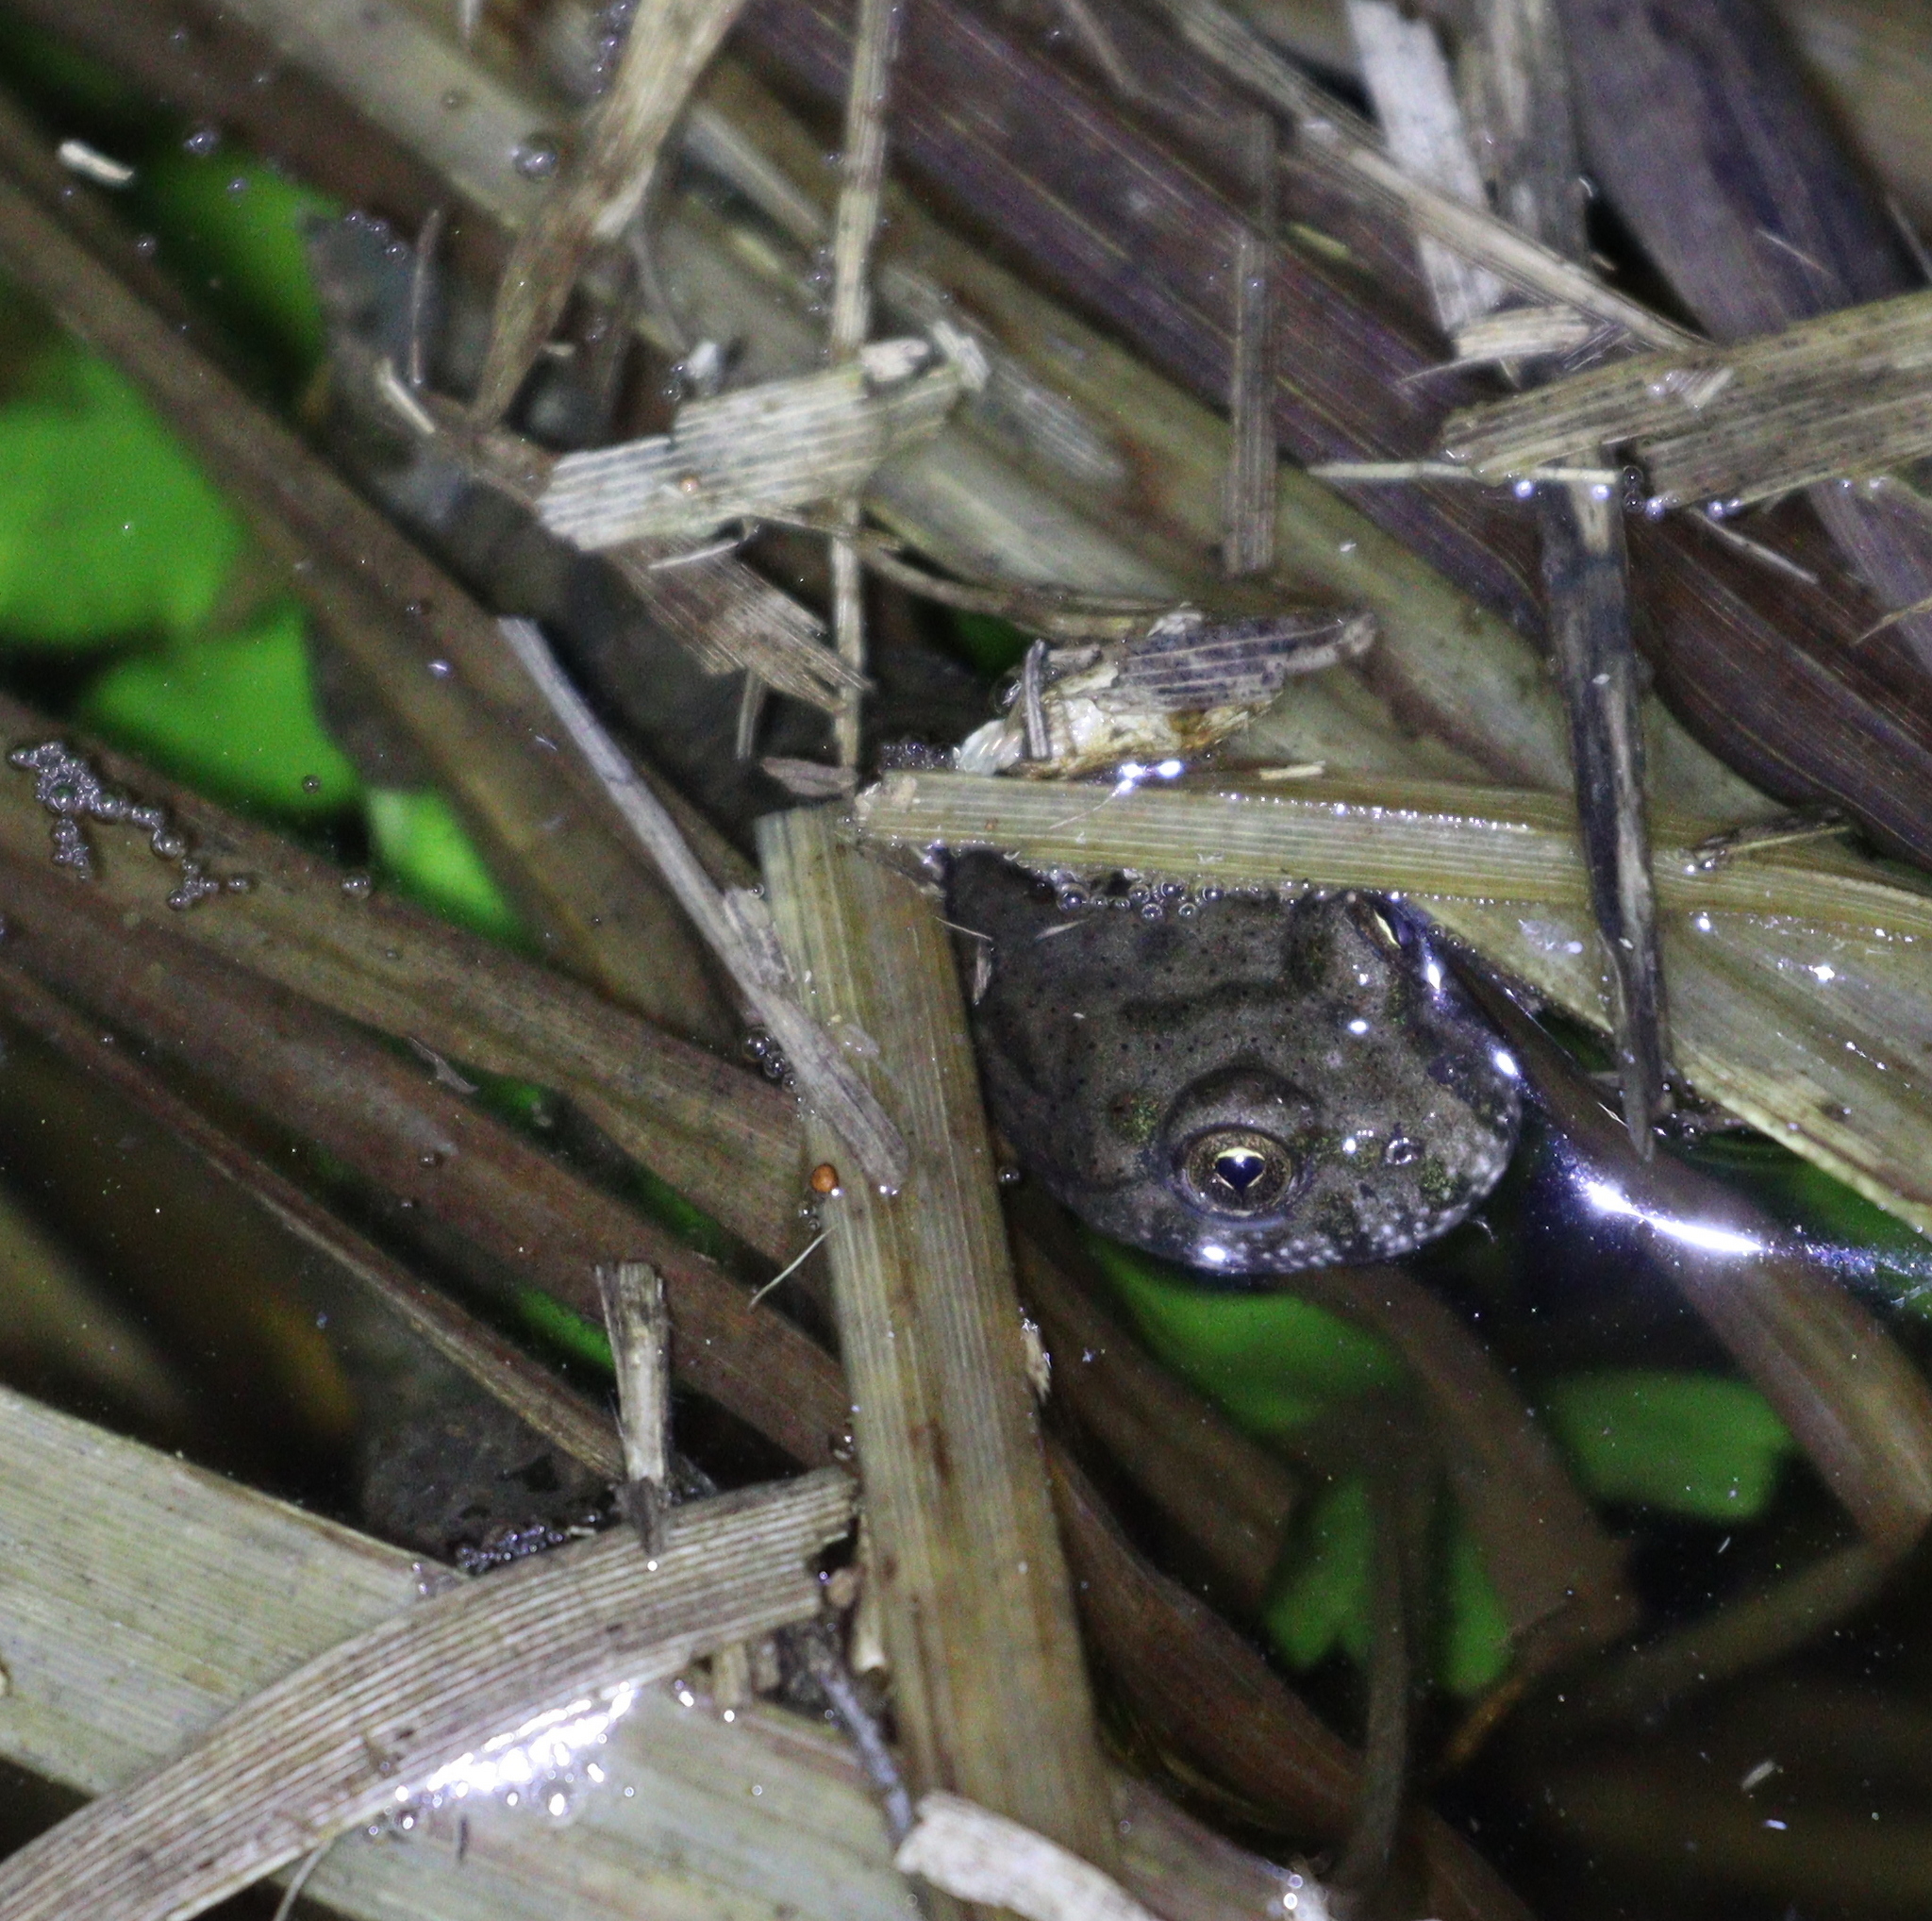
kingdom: Animalia
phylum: Chordata
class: Amphibia
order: Anura
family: Bombinatoridae
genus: Bombina
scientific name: Bombina bombina
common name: Fire-bellied toad
